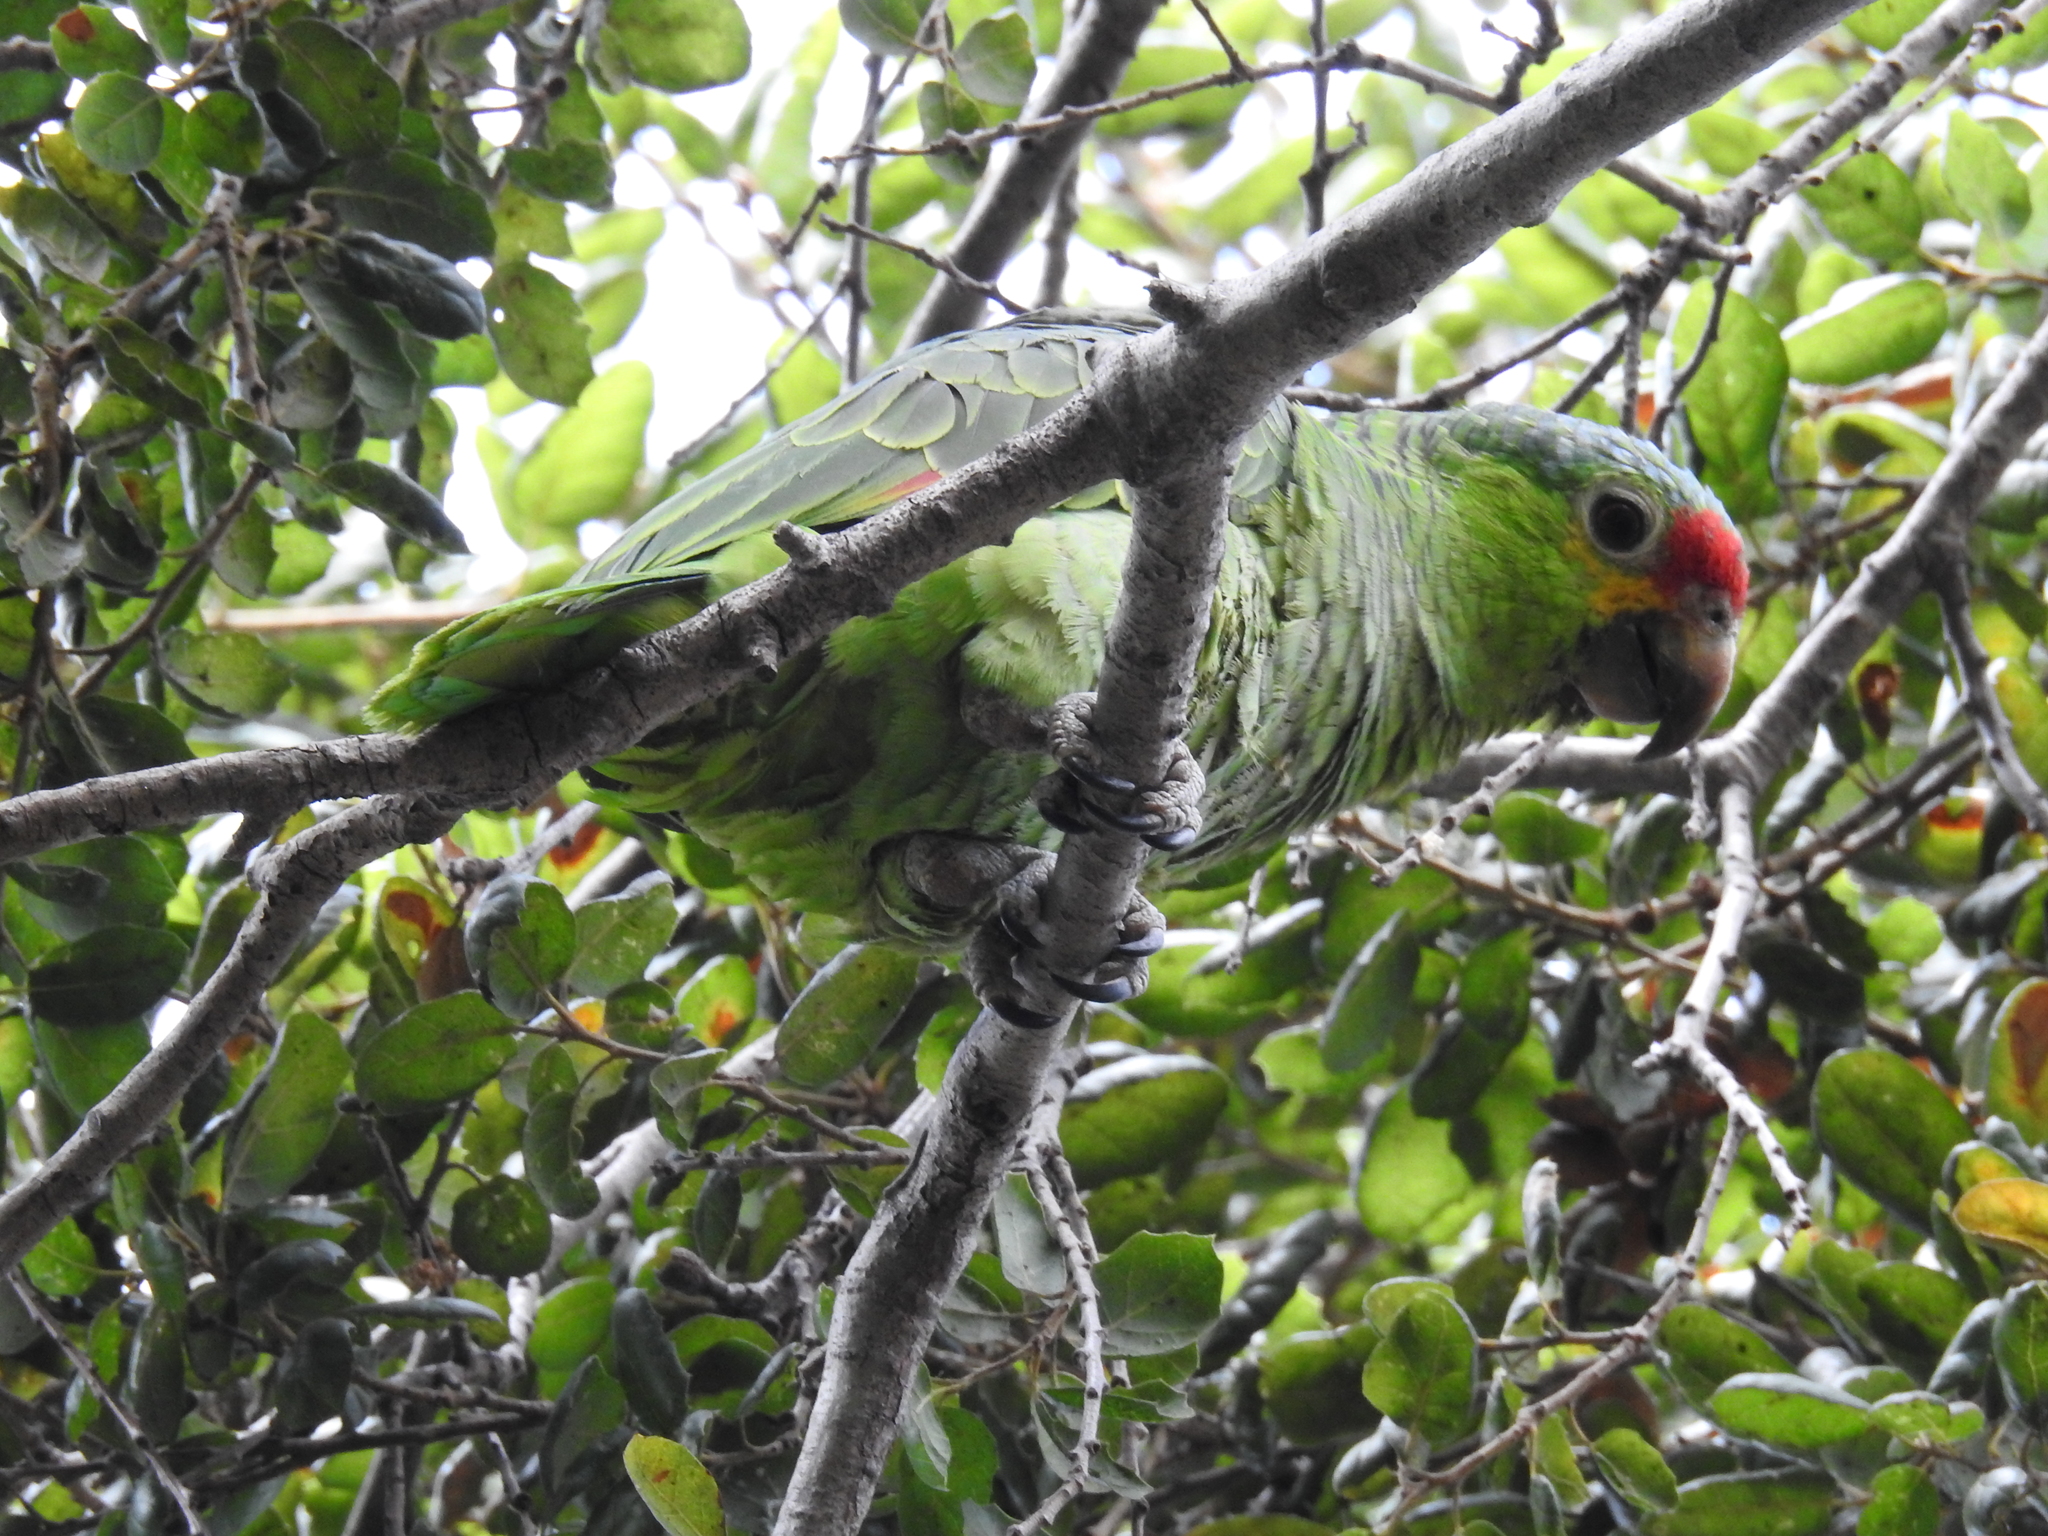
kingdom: Animalia
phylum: Chordata
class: Aves
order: Psittaciformes
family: Psittacidae
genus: Amazona
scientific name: Amazona autumnalis
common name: Red-lored amazon
